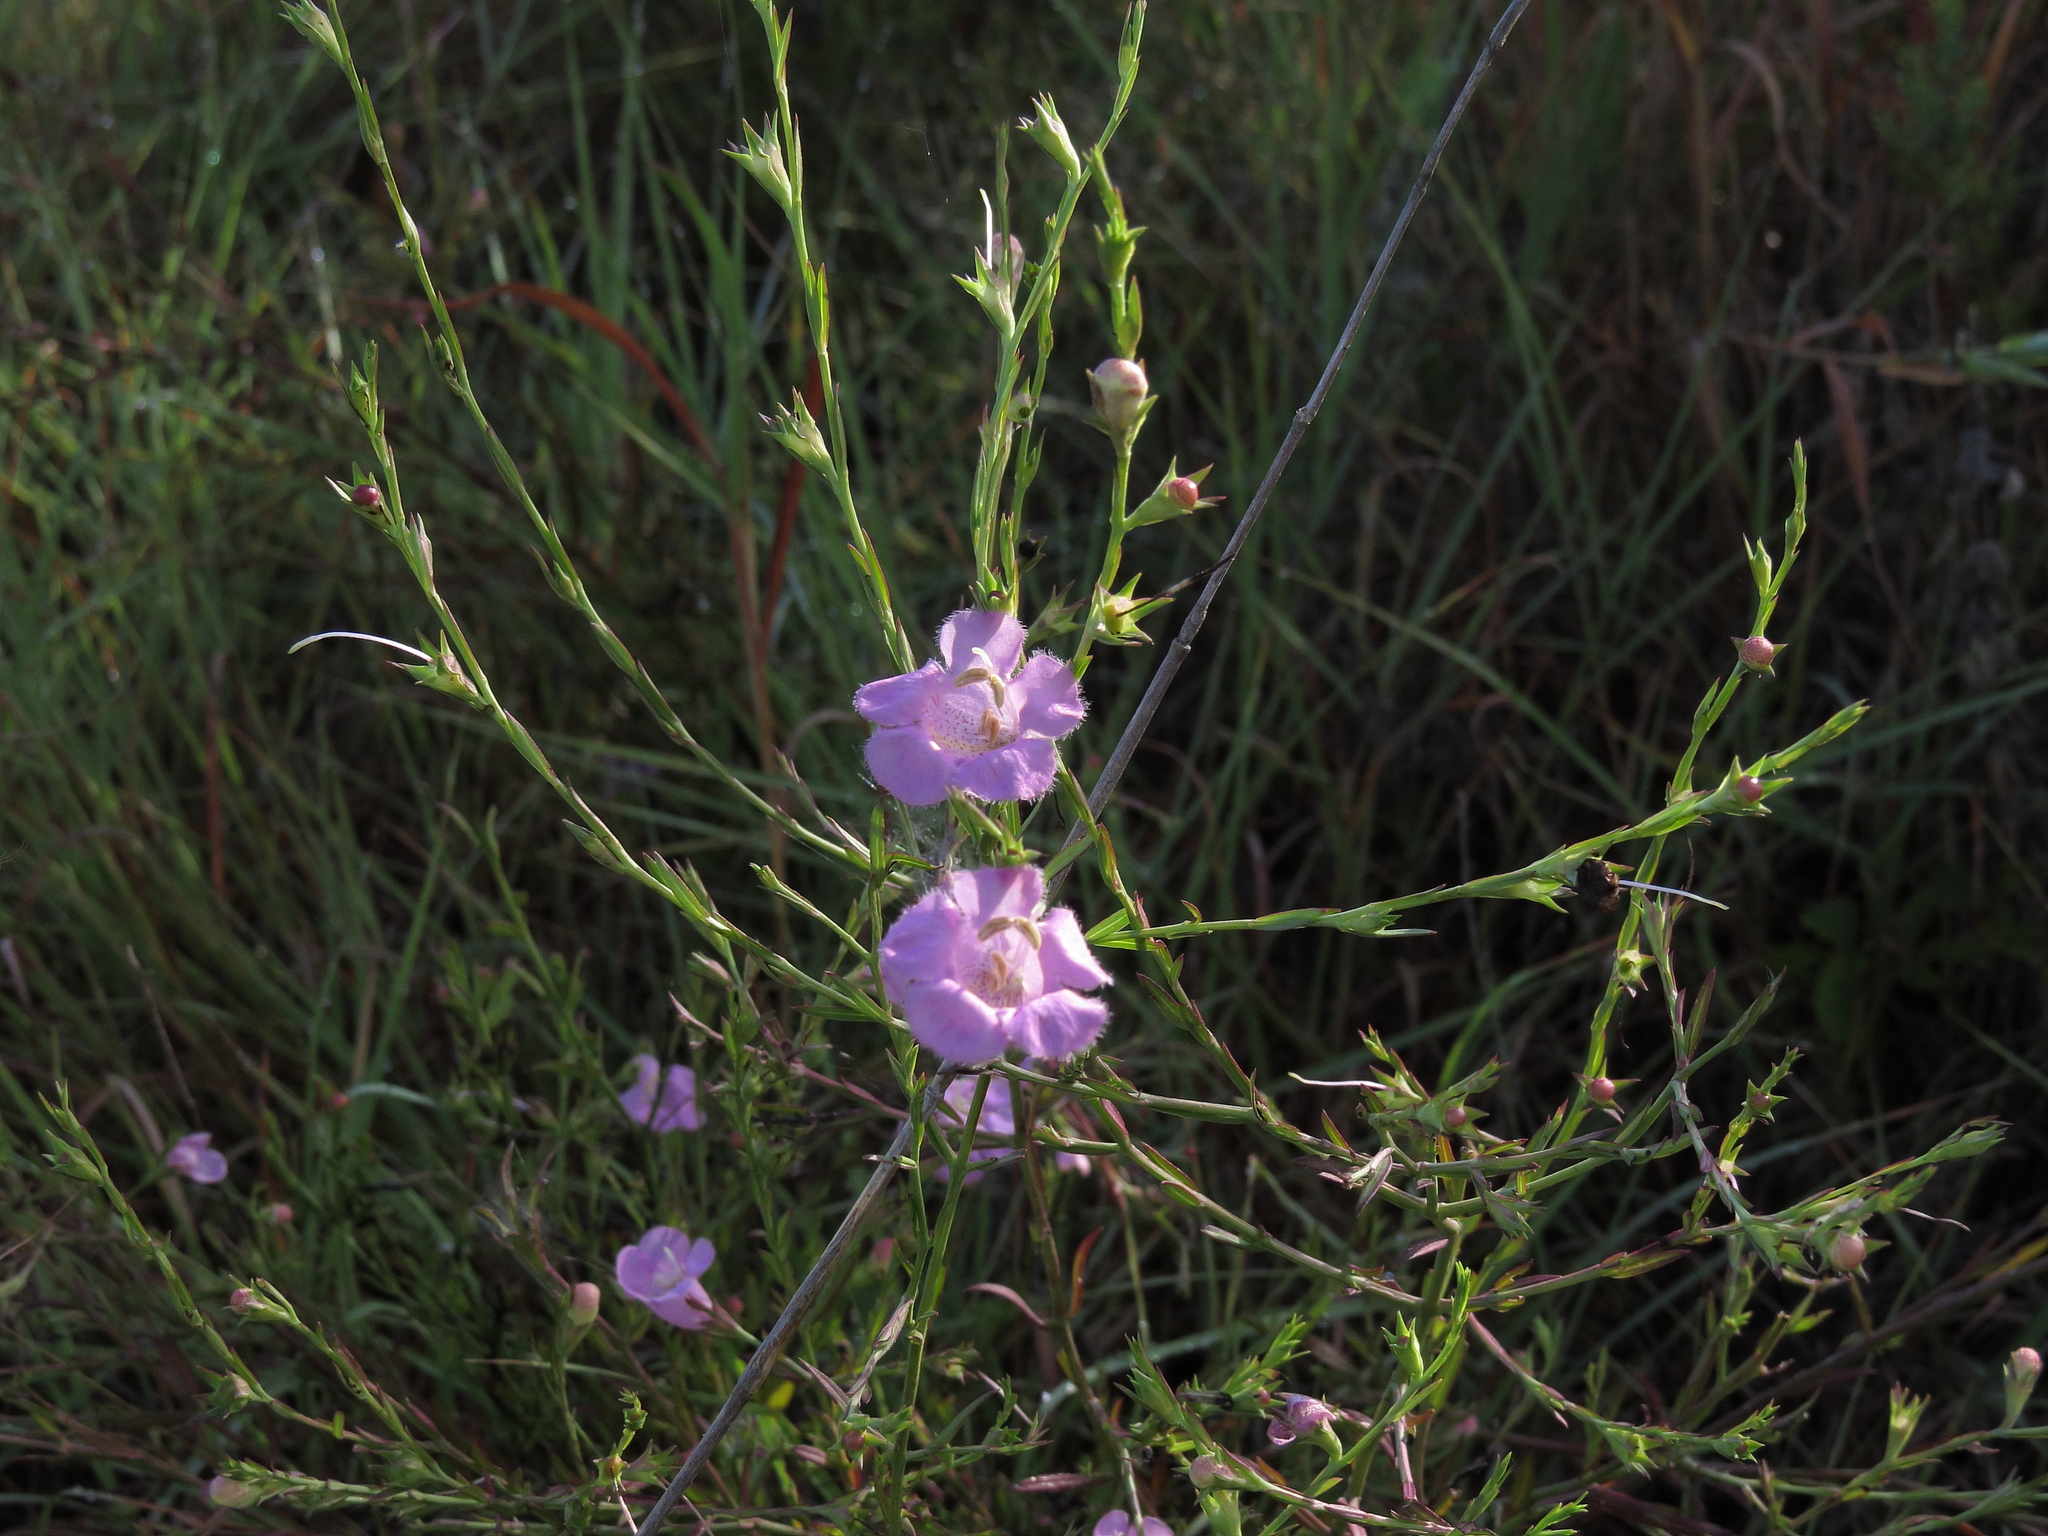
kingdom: Plantae
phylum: Tracheophyta
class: Magnoliopsida
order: Lamiales
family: Orobanchaceae
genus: Agalinis
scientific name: Agalinis heterophylla
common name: Prairie agalinis
